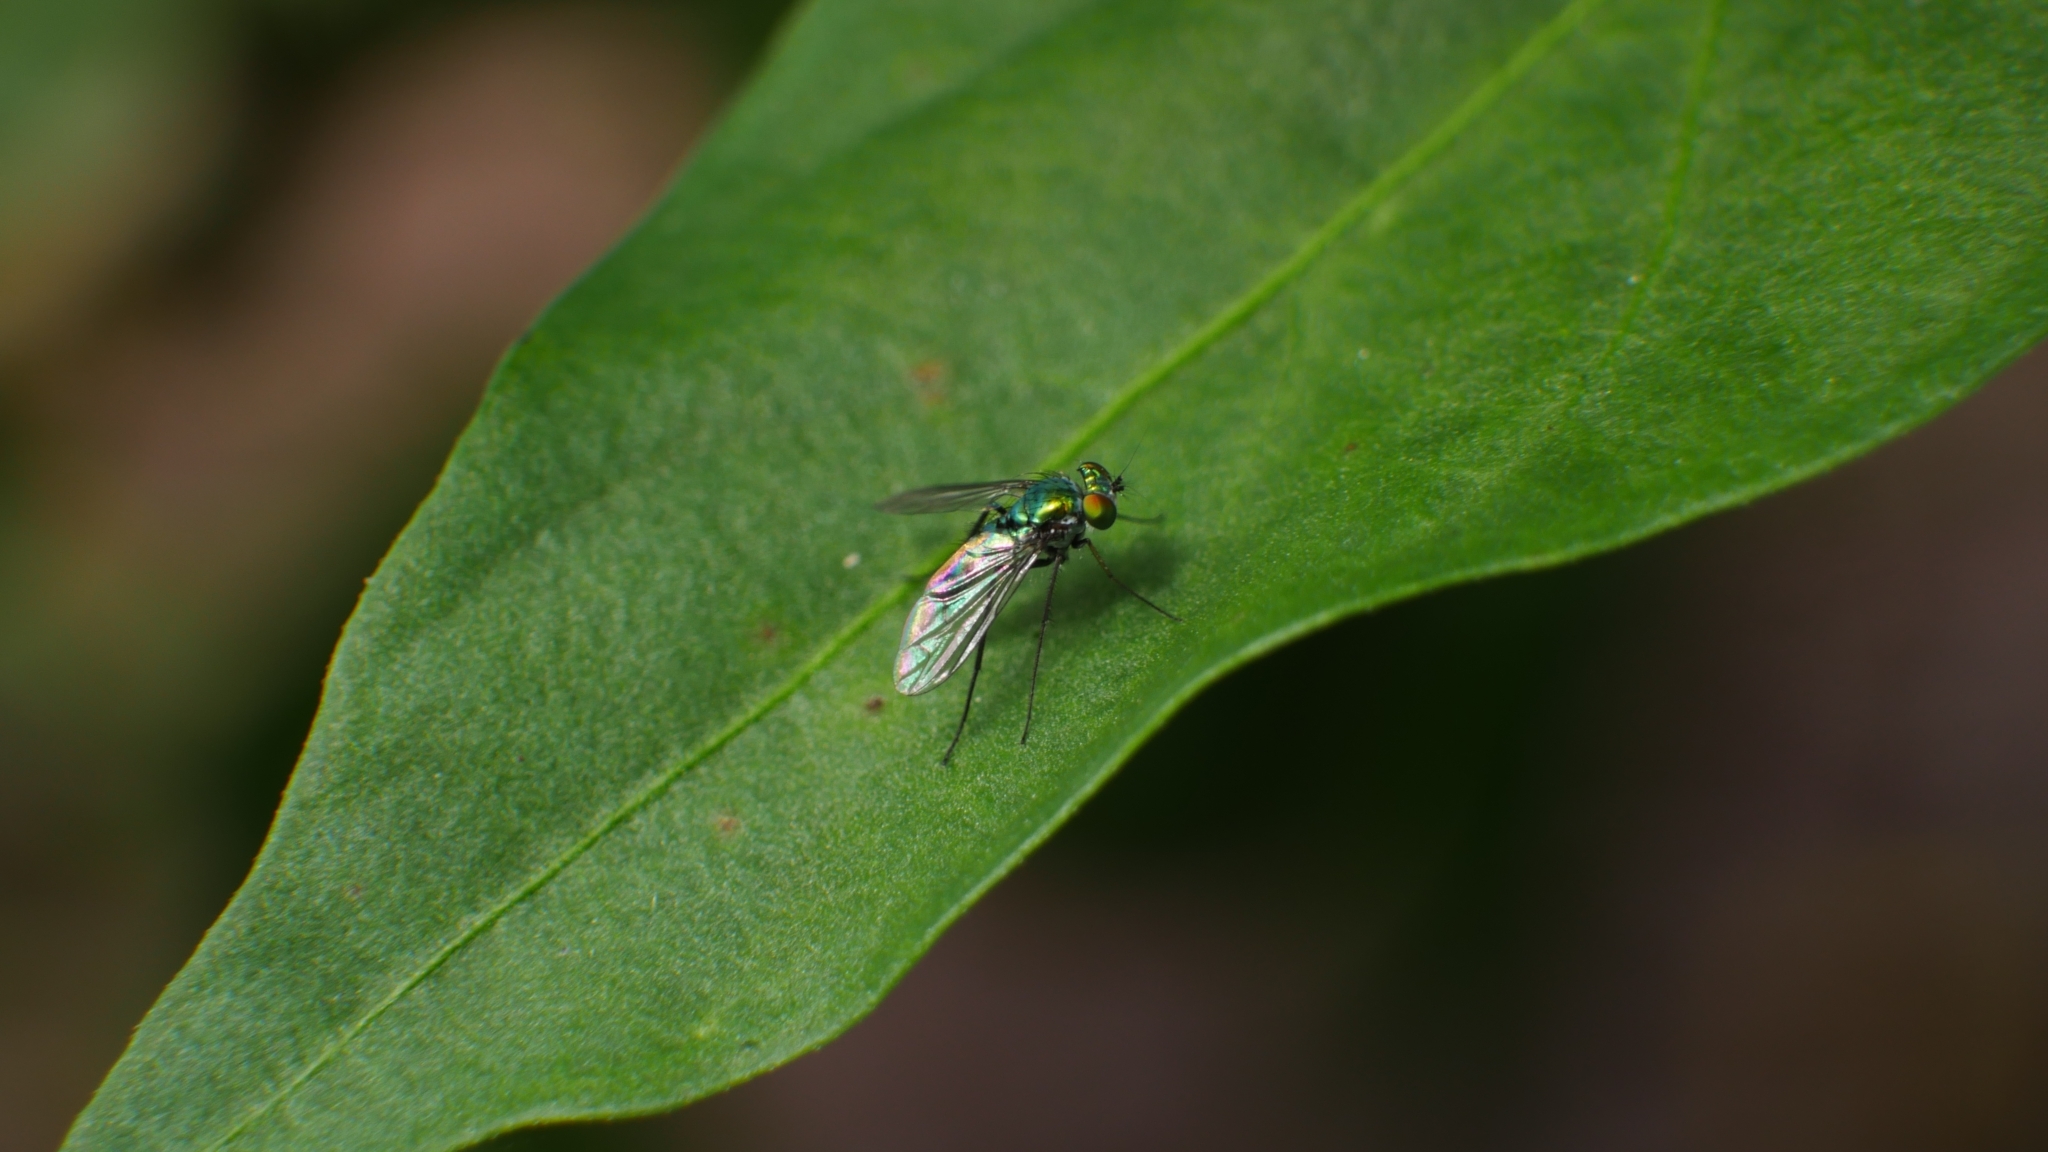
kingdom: Animalia
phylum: Arthropoda
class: Insecta
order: Diptera
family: Dolichopodidae
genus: Condylostylus
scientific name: Condylostylus longicornis
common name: Long-legged fly
